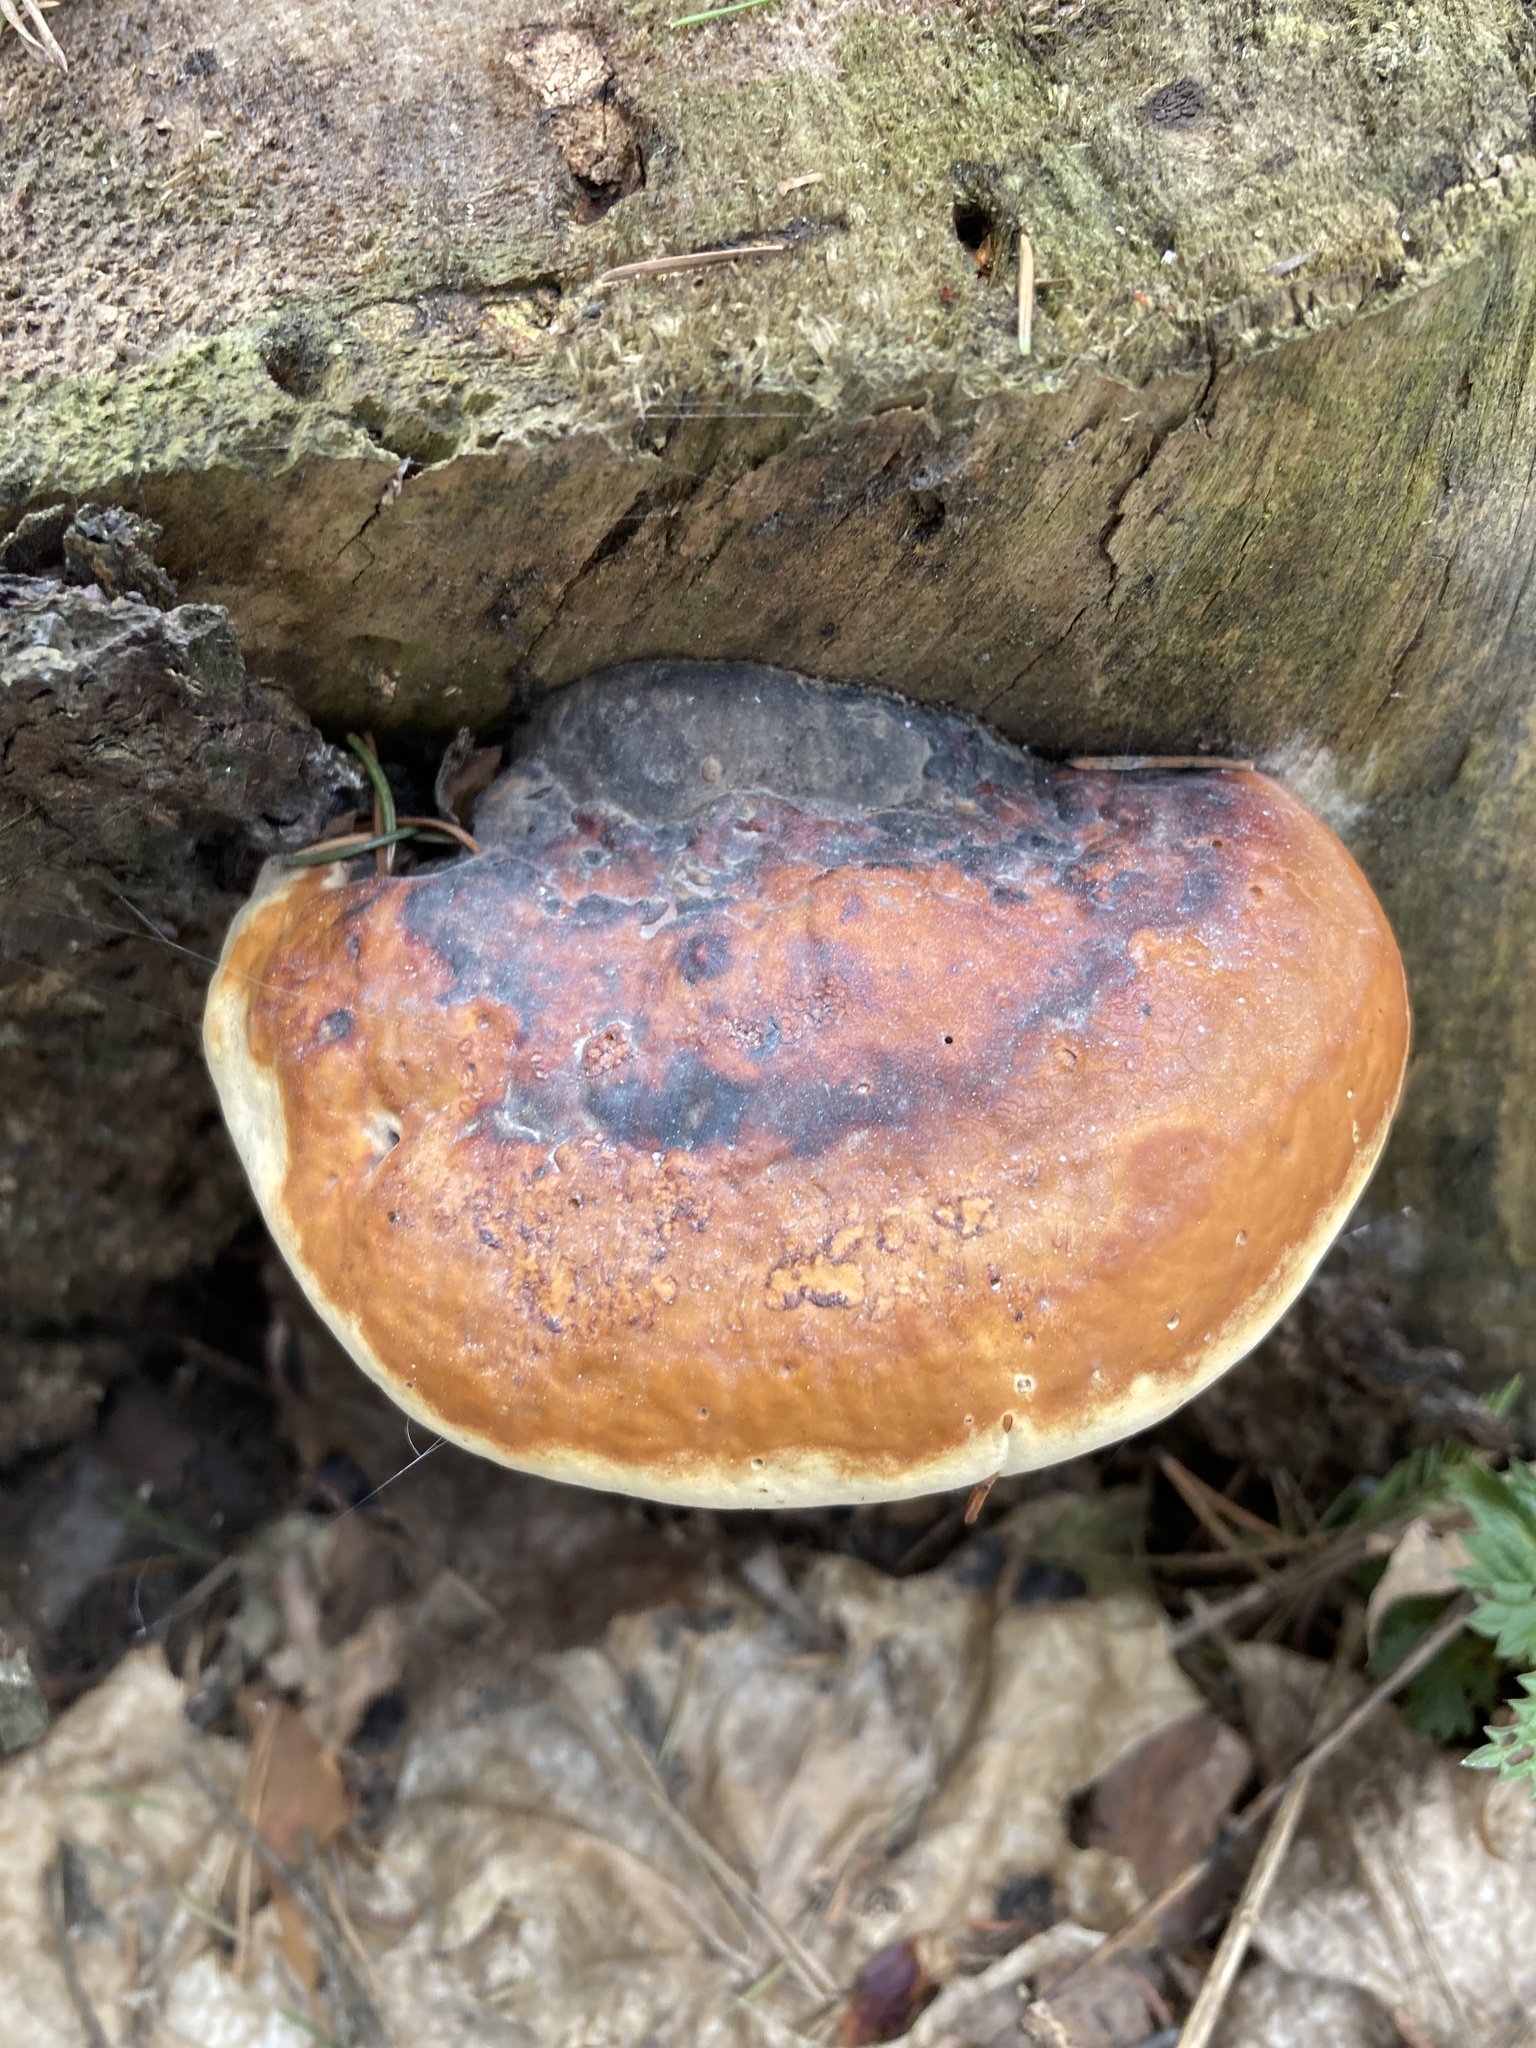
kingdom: Fungi
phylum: Basidiomycota
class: Agaricomycetes
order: Polyporales
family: Fomitopsidaceae
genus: Fomitopsis
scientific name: Fomitopsis pinicola
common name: Red-belted bracket
